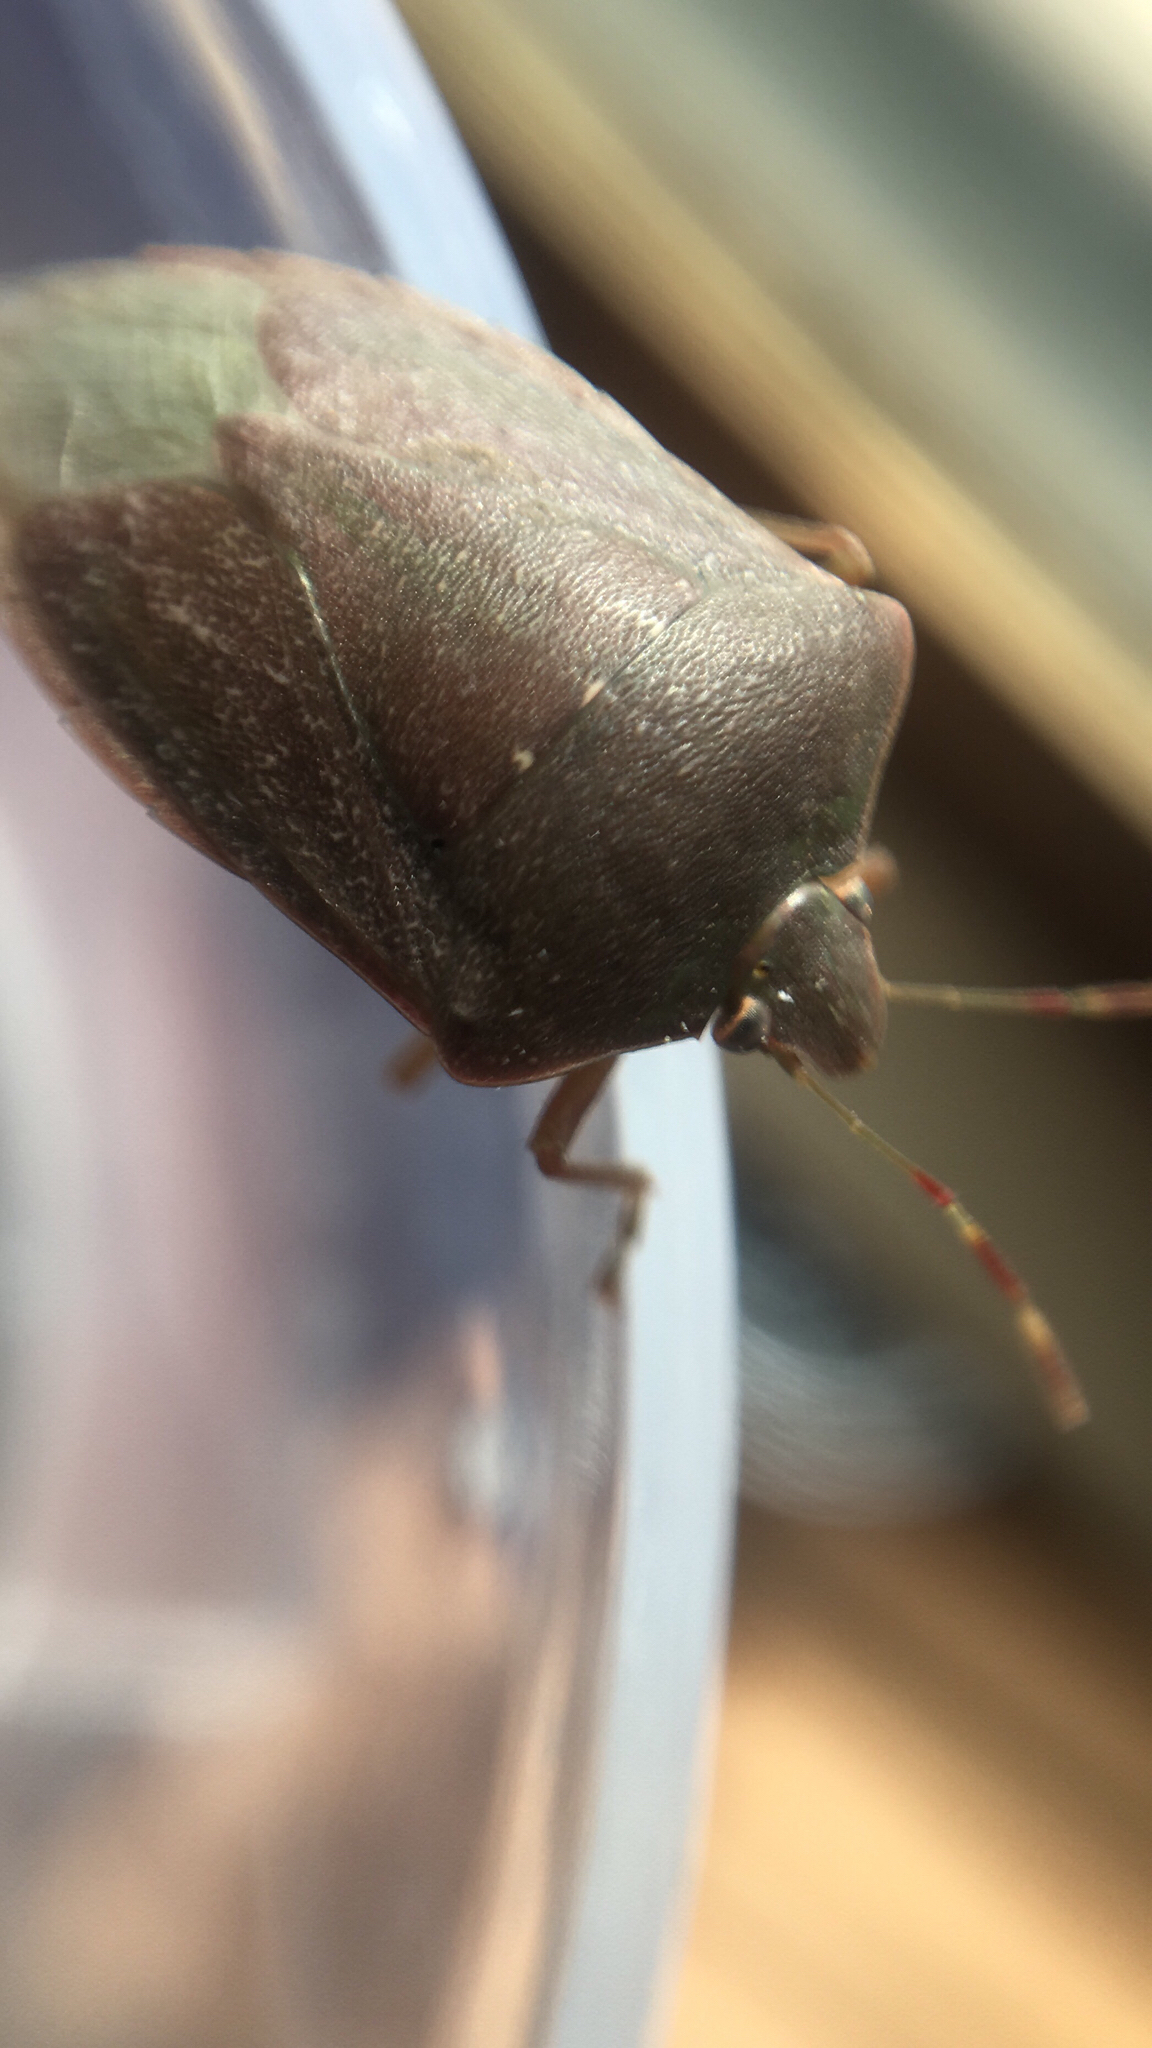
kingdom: Animalia
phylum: Arthropoda
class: Insecta
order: Hemiptera
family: Pentatomidae
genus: Nezara
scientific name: Nezara viridula
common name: Southern green stink bug
